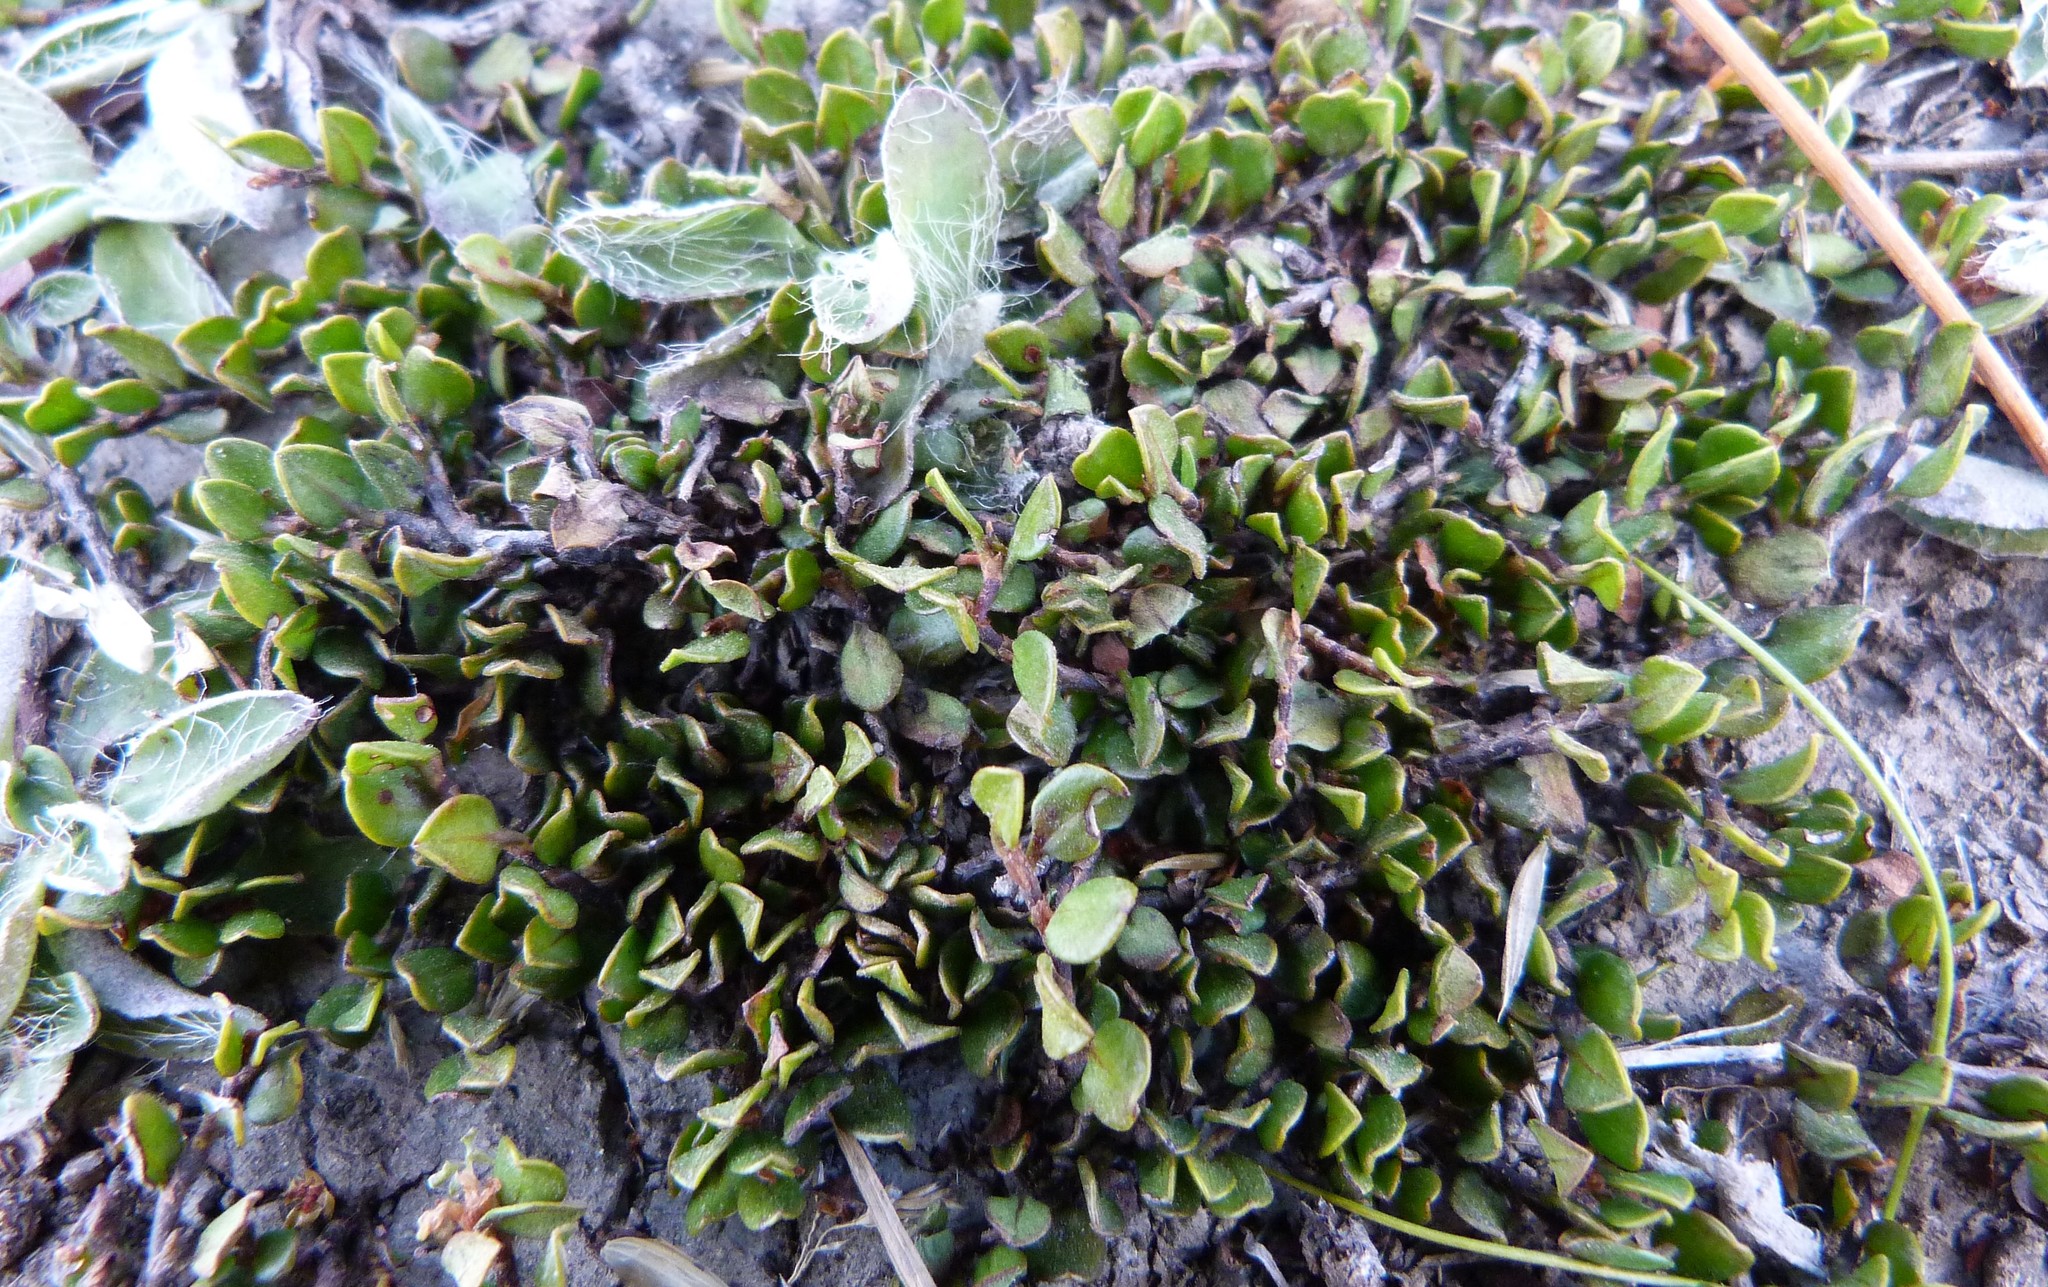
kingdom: Plantae
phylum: Tracheophyta
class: Magnoliopsida
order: Caryophyllales
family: Polygonaceae
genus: Muehlenbeckia
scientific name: Muehlenbeckia axillaris
